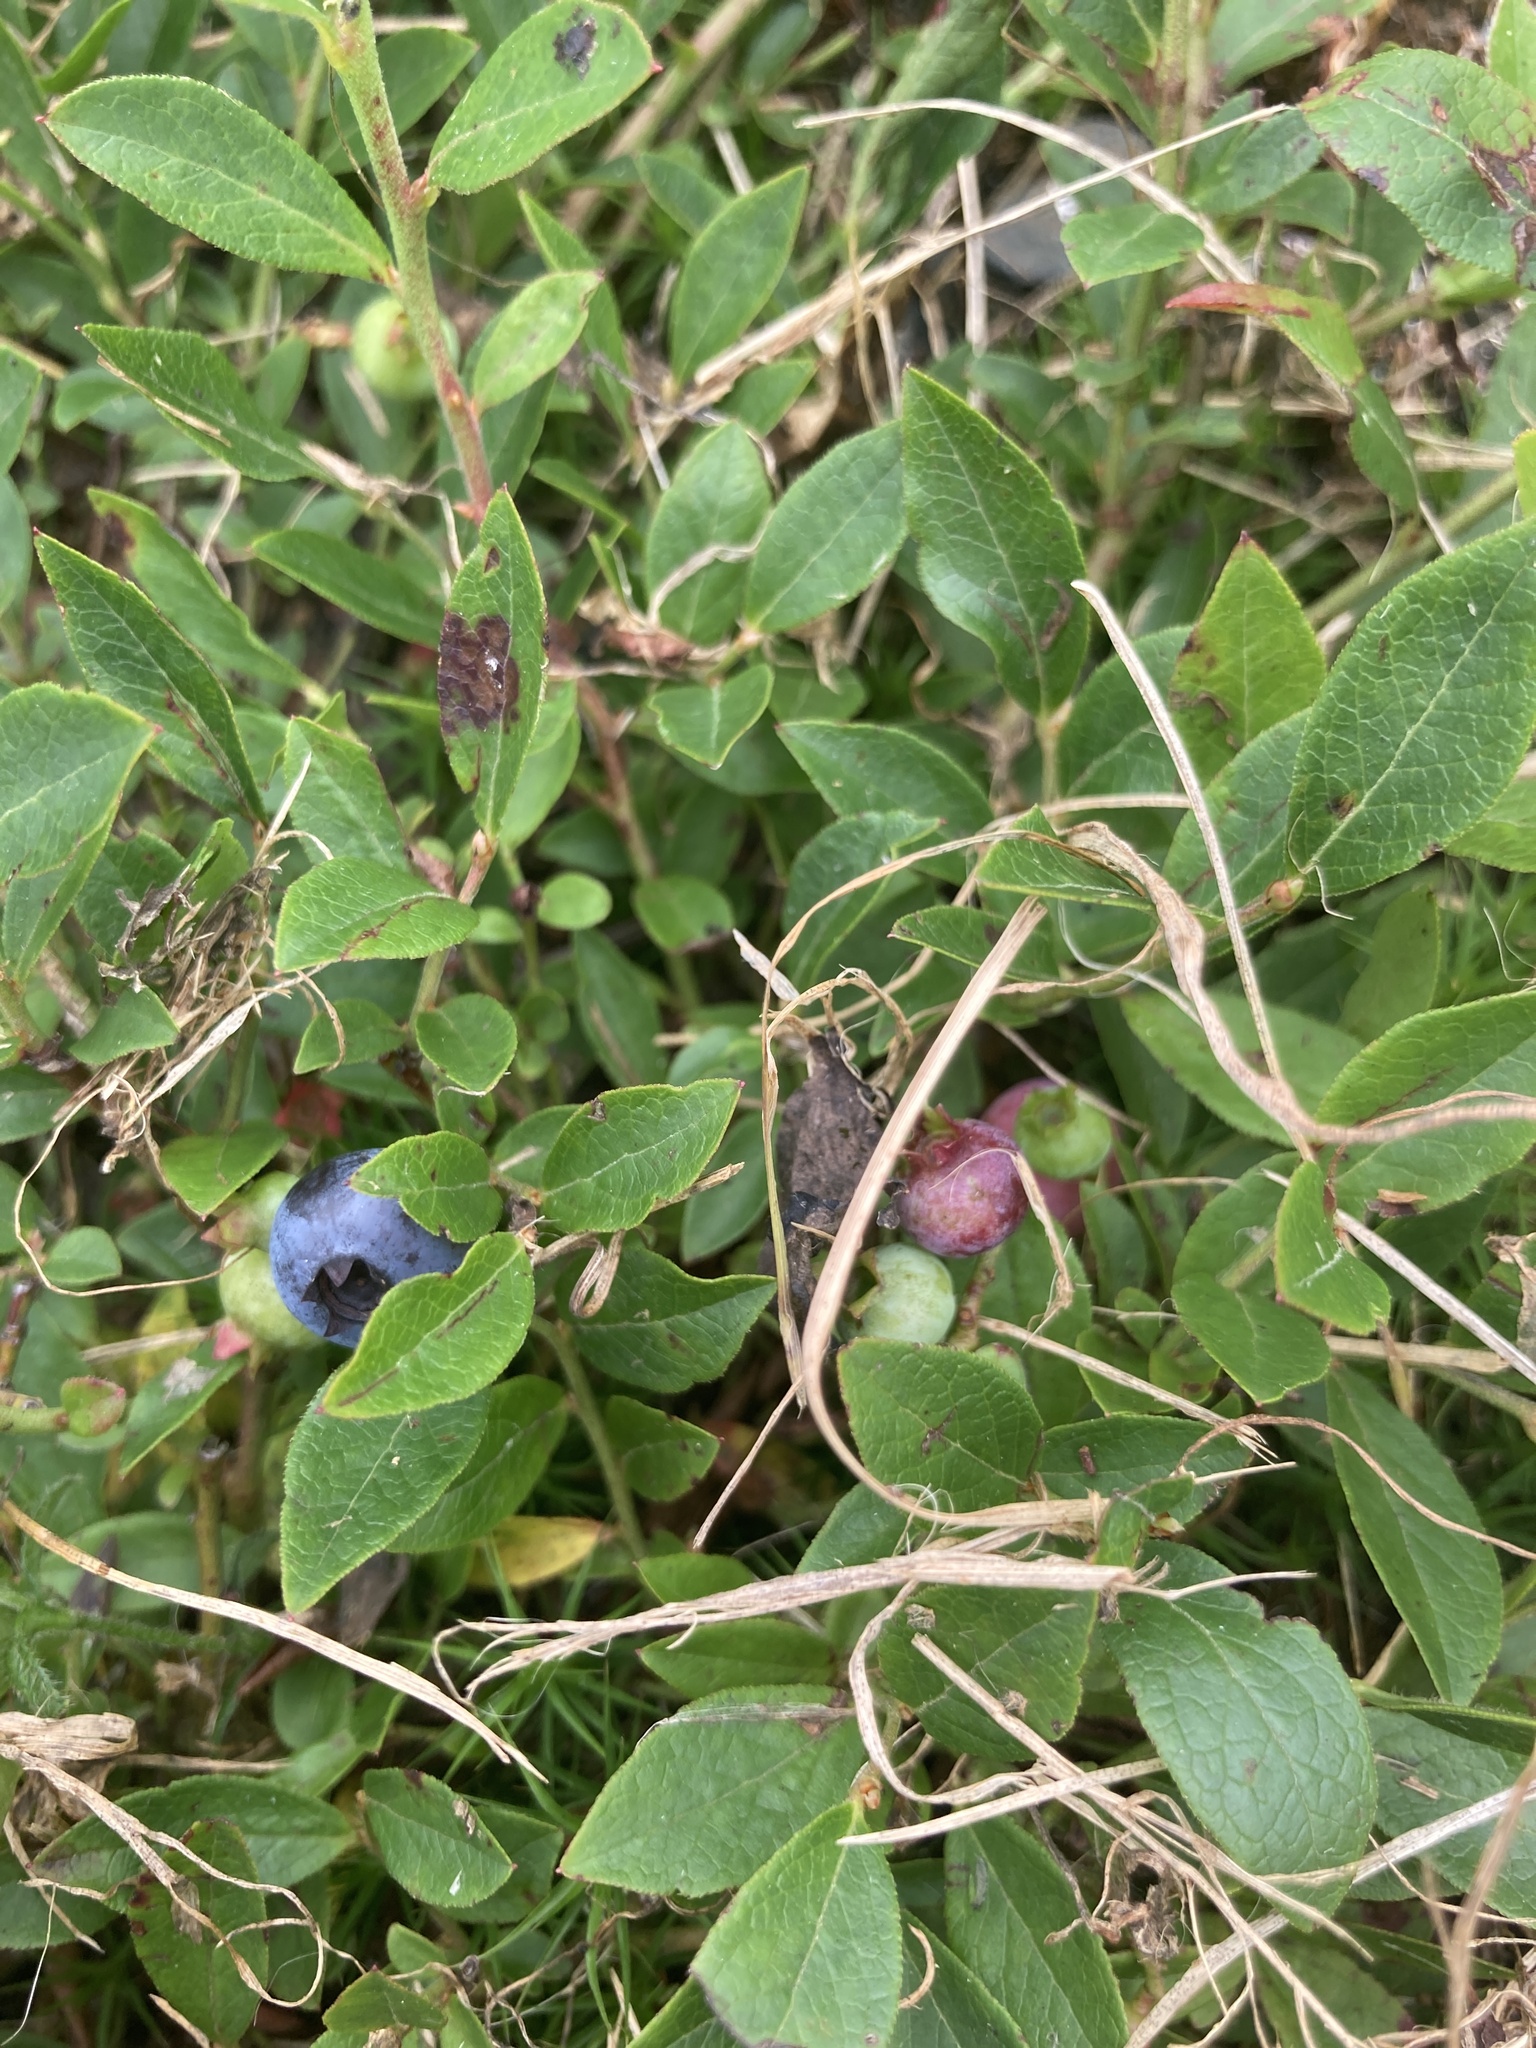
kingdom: Plantae
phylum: Tracheophyta
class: Magnoliopsida
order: Ericales
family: Ericaceae
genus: Vaccinium
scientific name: Vaccinium angustifolium
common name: Early lowbush blueberry
